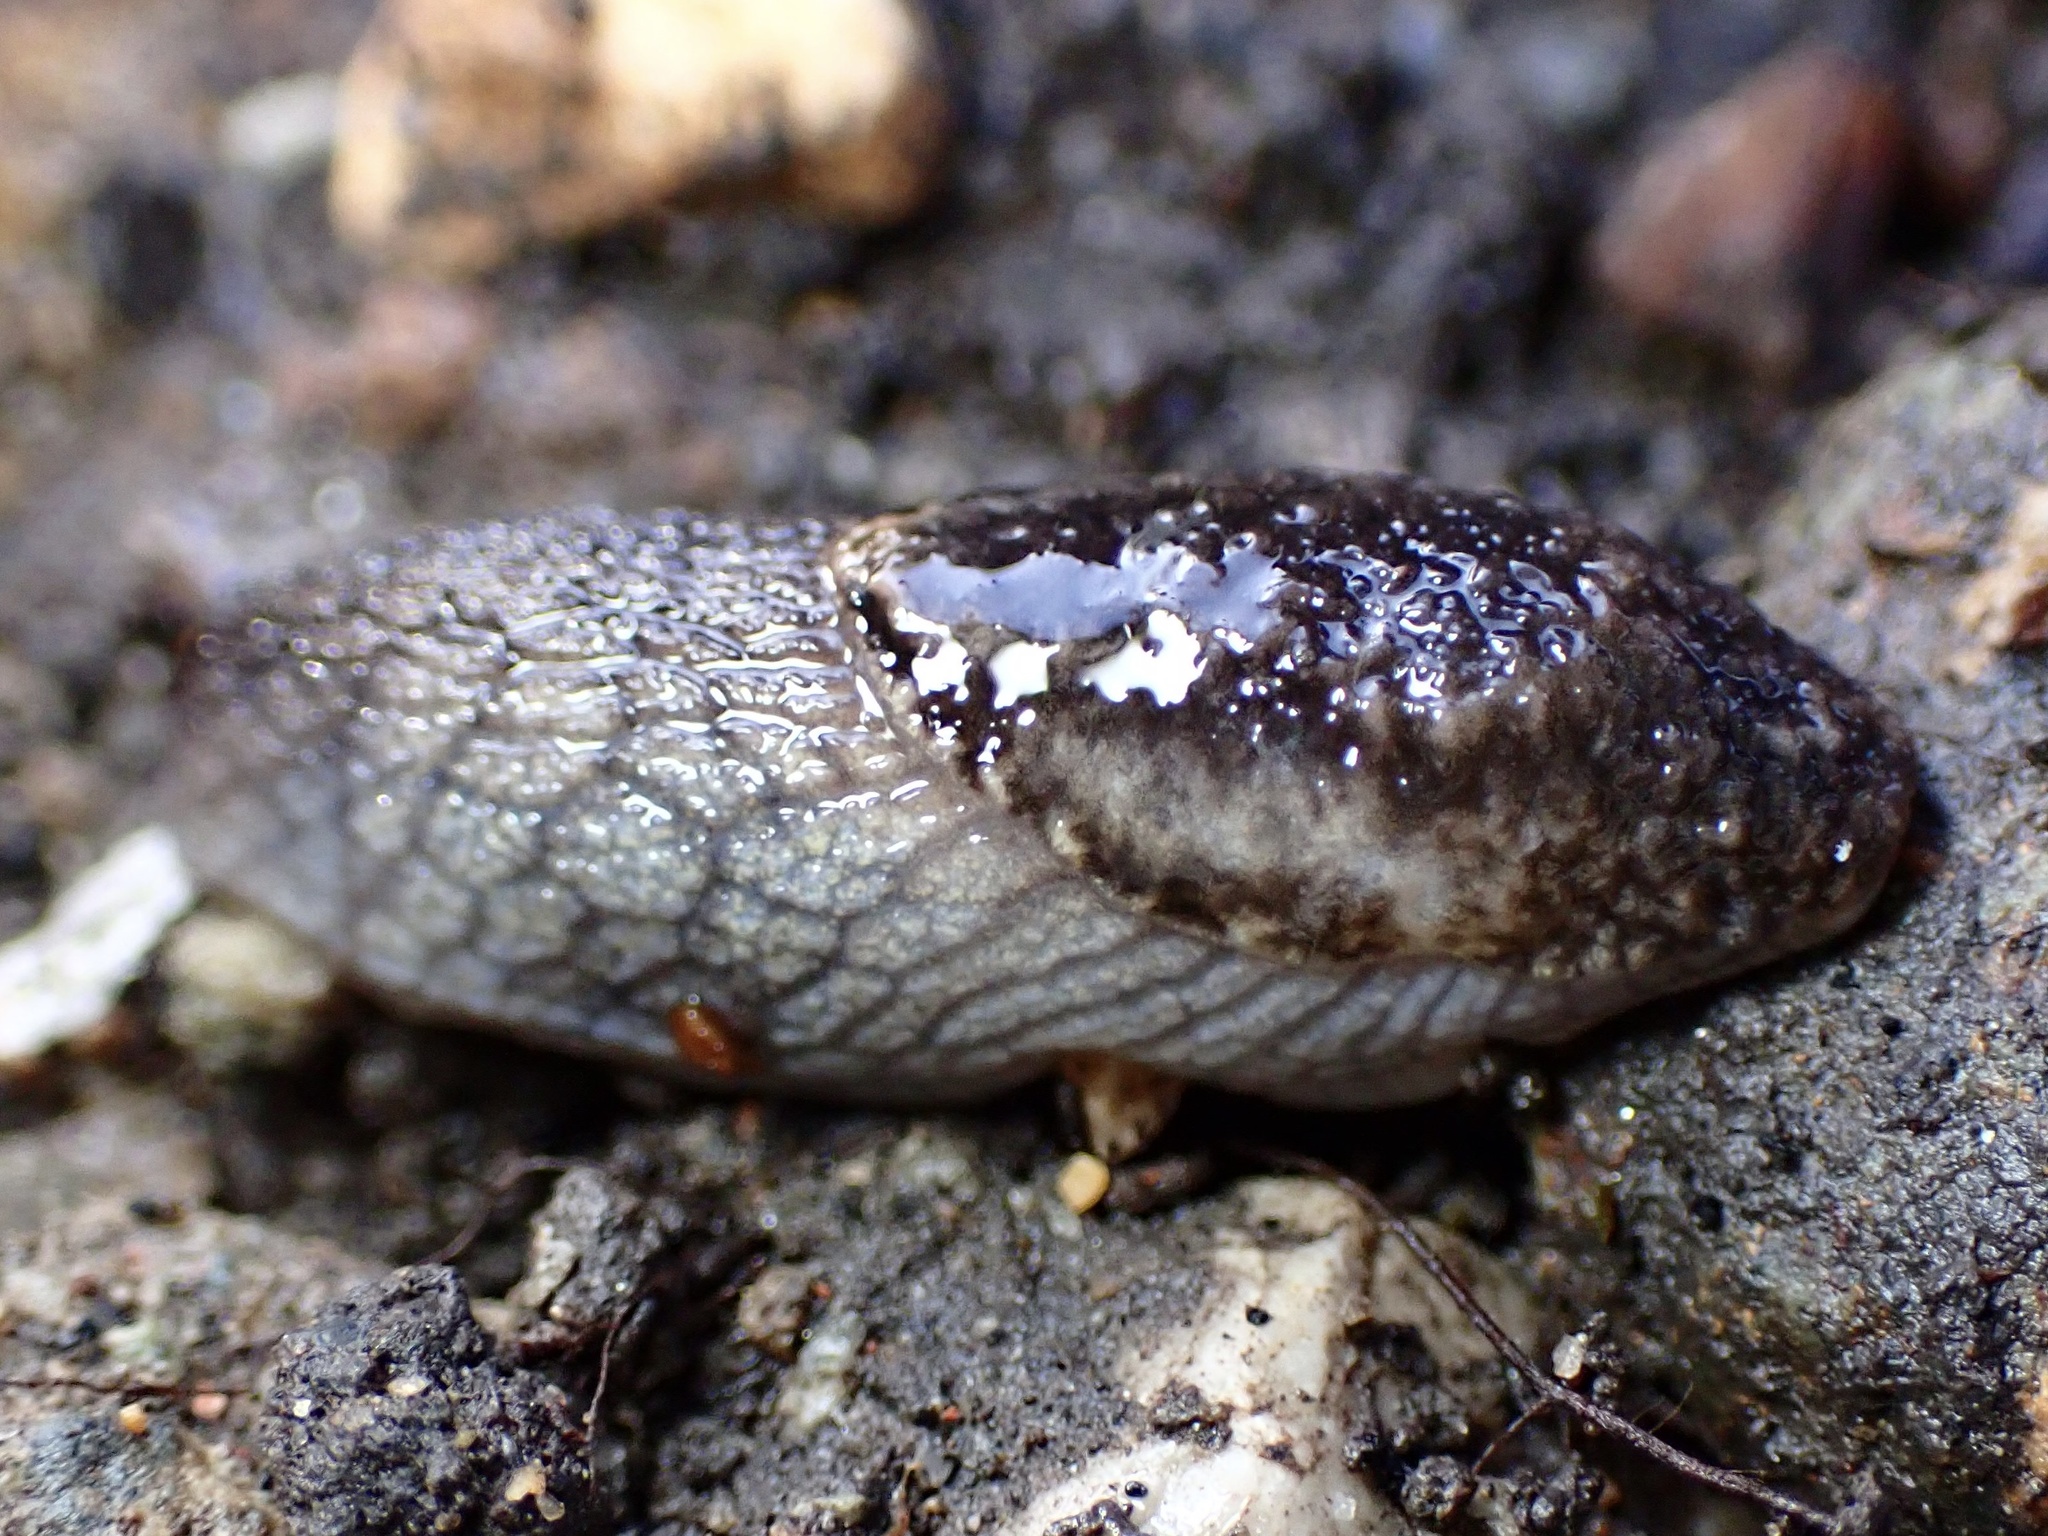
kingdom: Animalia
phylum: Mollusca
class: Gastropoda
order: Stylommatophora
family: Ariolimacidae
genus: Prophysaon
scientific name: Prophysaon andersonii
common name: Reticulate taildropper
